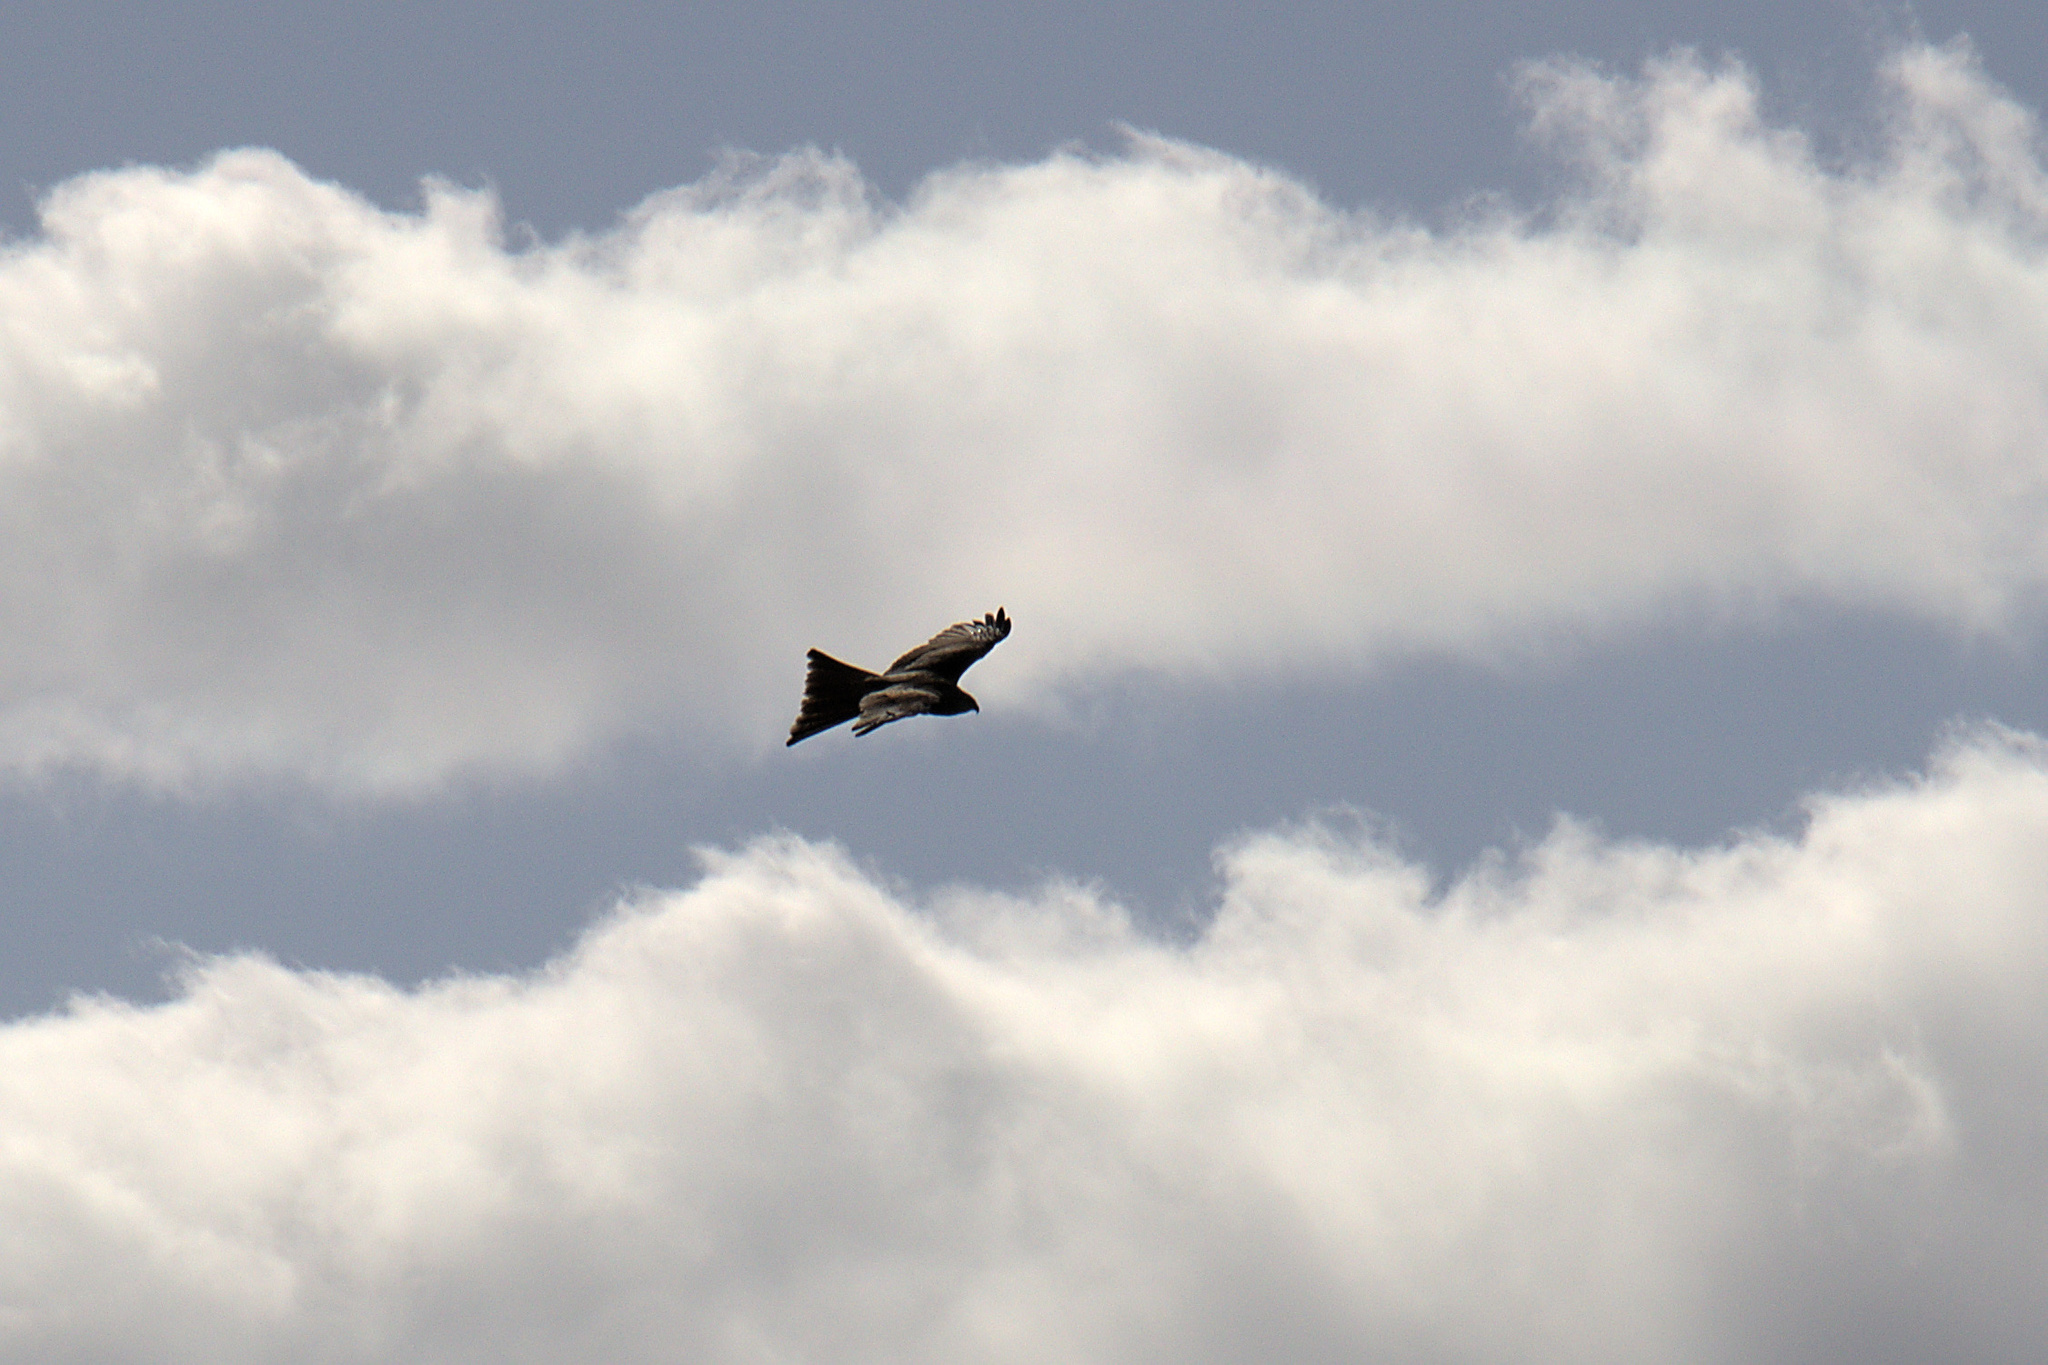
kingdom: Animalia
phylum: Chordata
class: Aves
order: Accipitriformes
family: Accipitridae
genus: Milvus
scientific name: Milvus migrans
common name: Black kite
